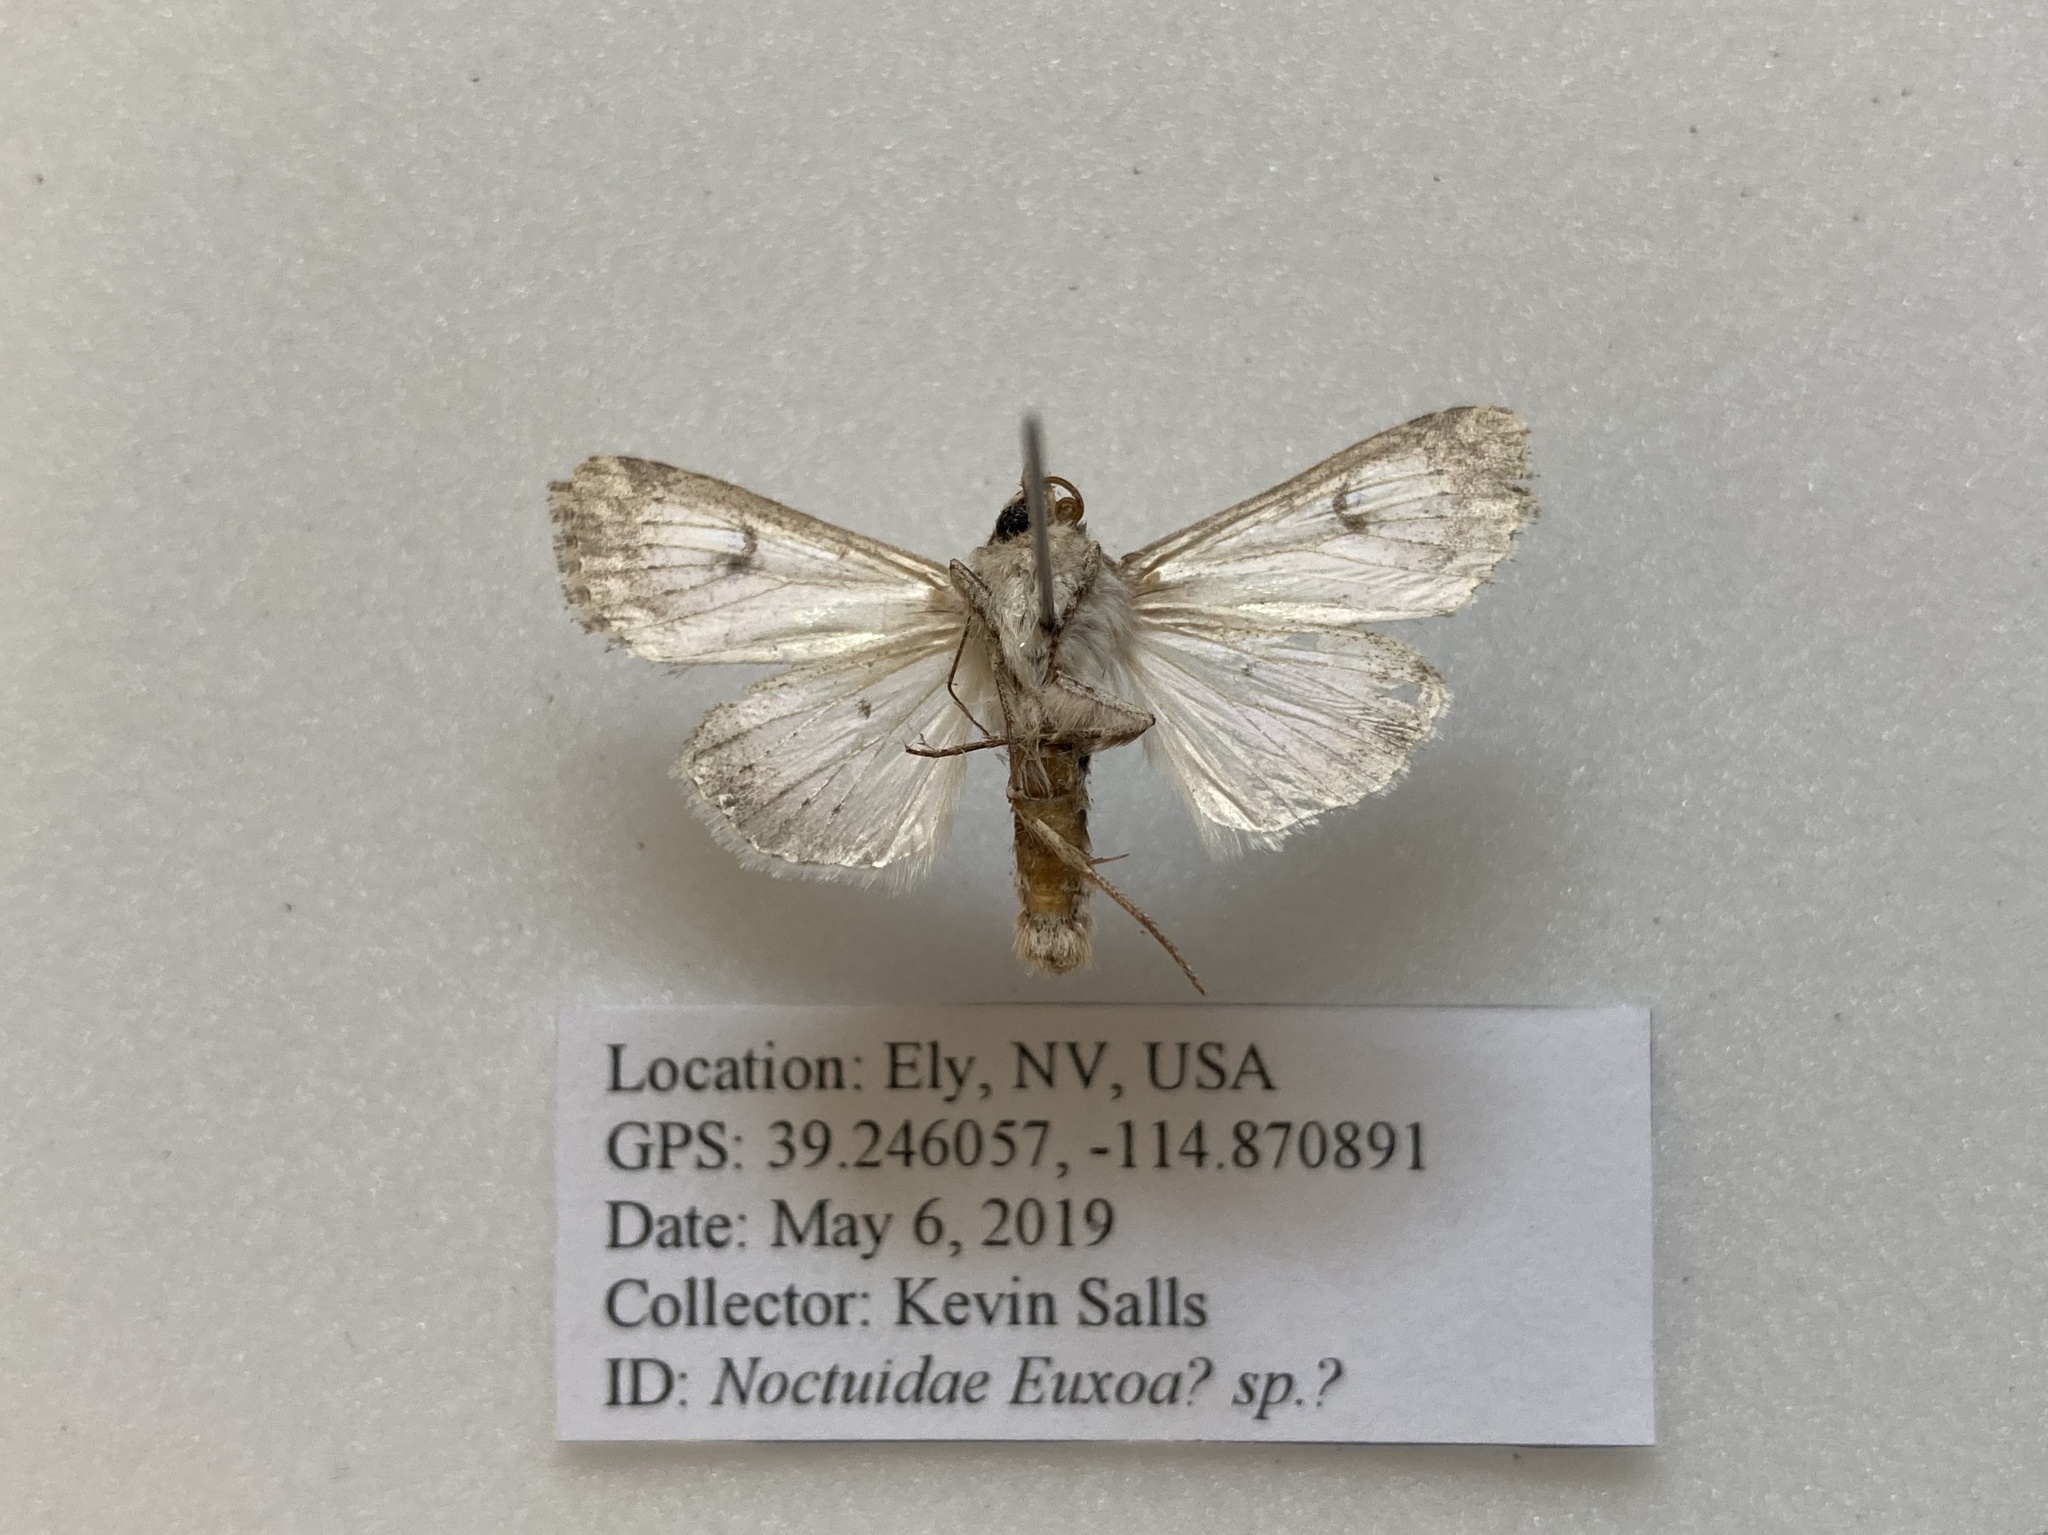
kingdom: Animalia
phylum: Arthropoda
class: Insecta
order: Lepidoptera
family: Noctuidae
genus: Tridepia
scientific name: Tridepia nova
